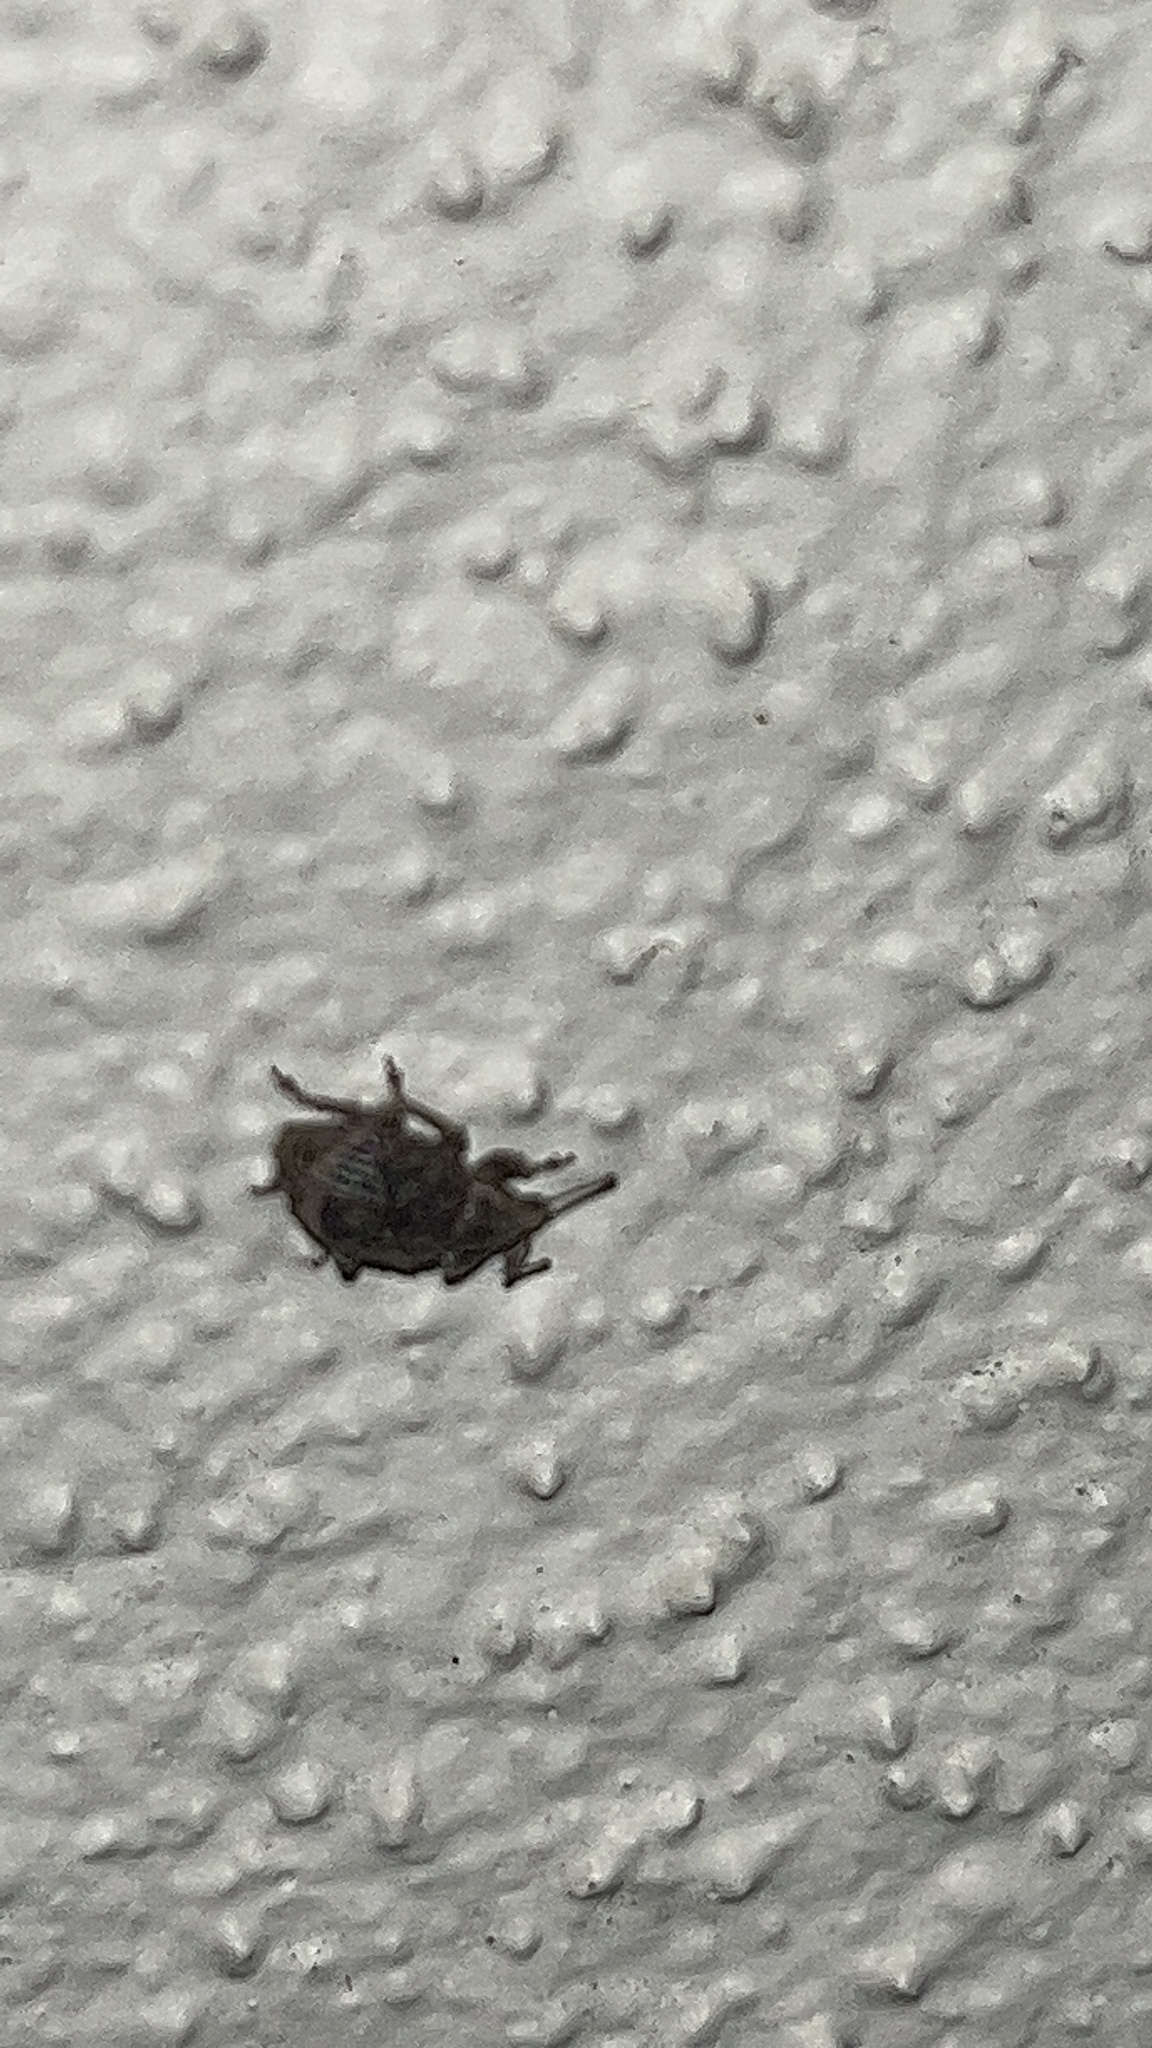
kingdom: Animalia
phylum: Arthropoda
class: Insecta
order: Coleoptera
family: Curculionidae
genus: Phlyctinus
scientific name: Phlyctinus callosus
